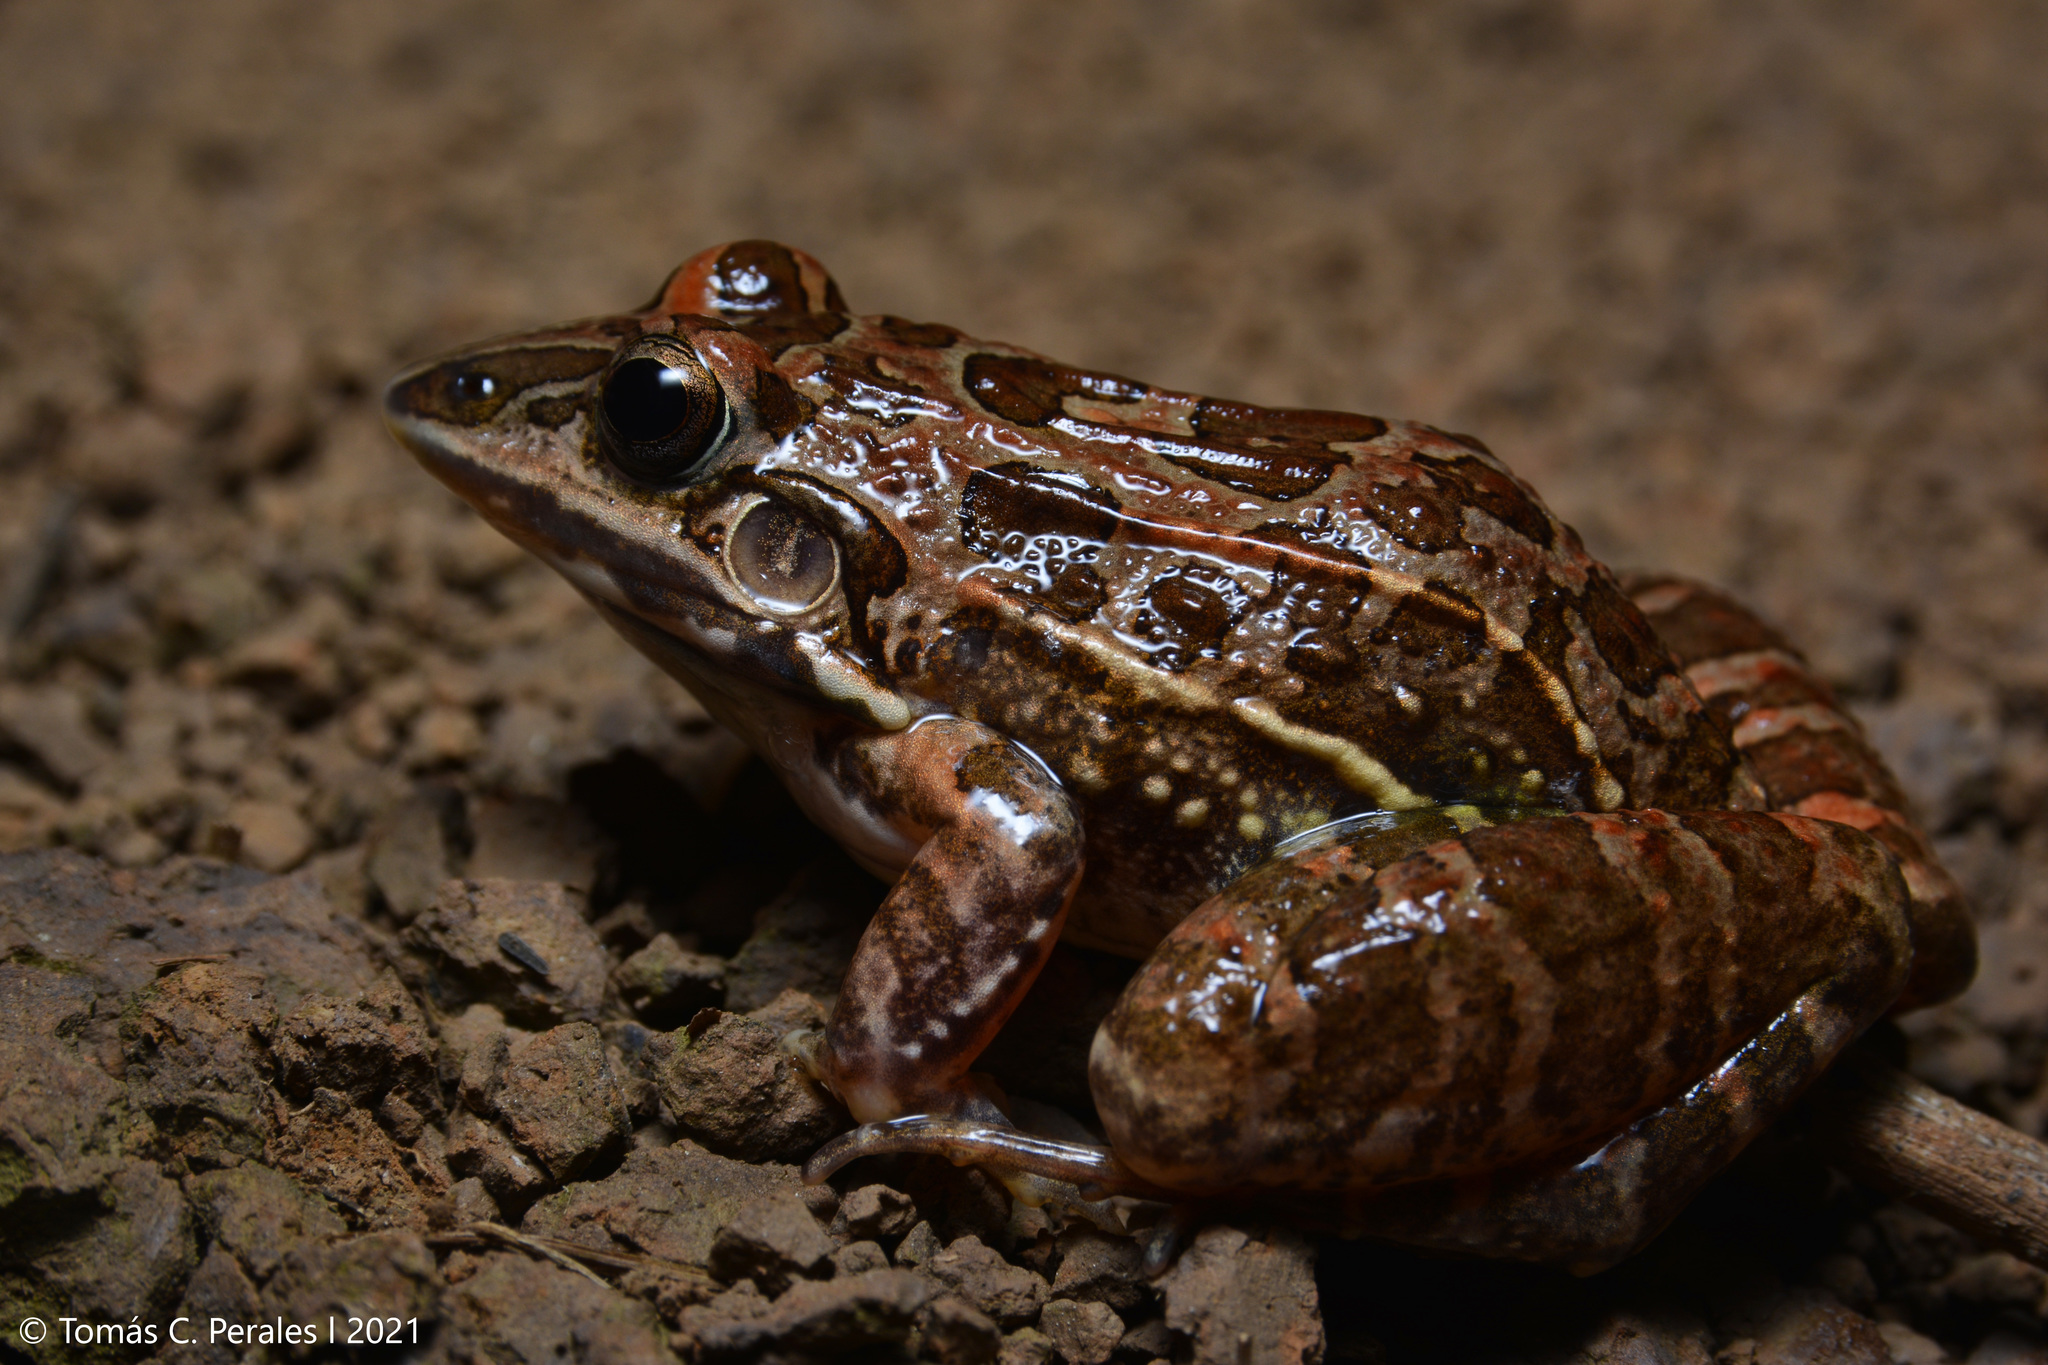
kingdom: Animalia
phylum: Chordata
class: Amphibia
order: Anura
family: Leptodactylidae
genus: Leptodactylus
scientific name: Leptodactylus fuscus
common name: Rufous frog
